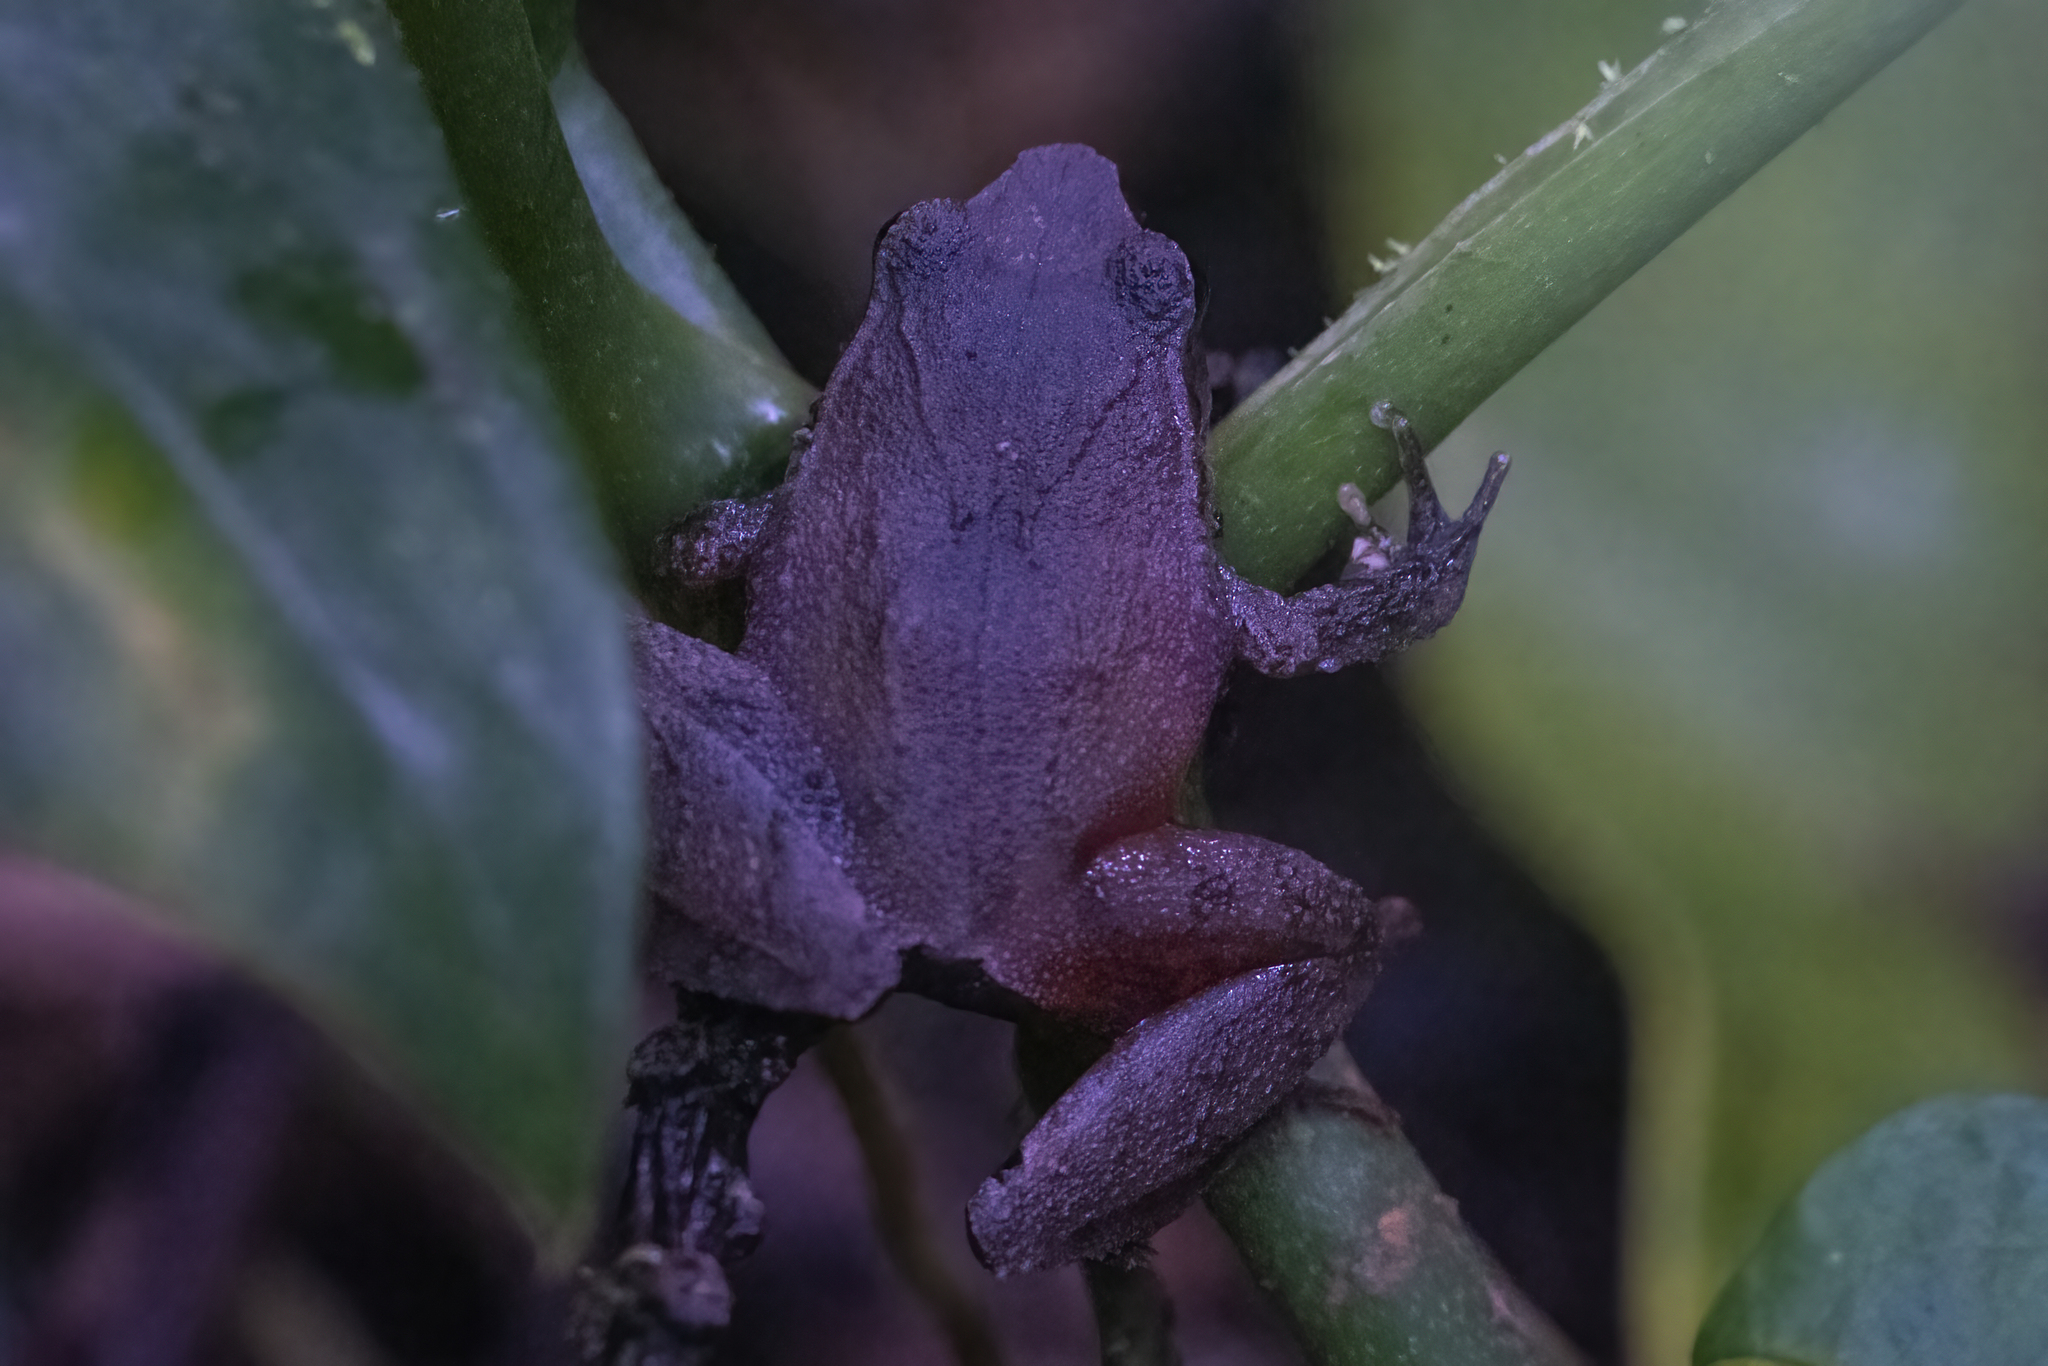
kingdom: Animalia
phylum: Chordata
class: Amphibia
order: Anura
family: Craugastoridae
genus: Craugastor
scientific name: Craugastor podiciferus
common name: Cerro utyum robber frog
